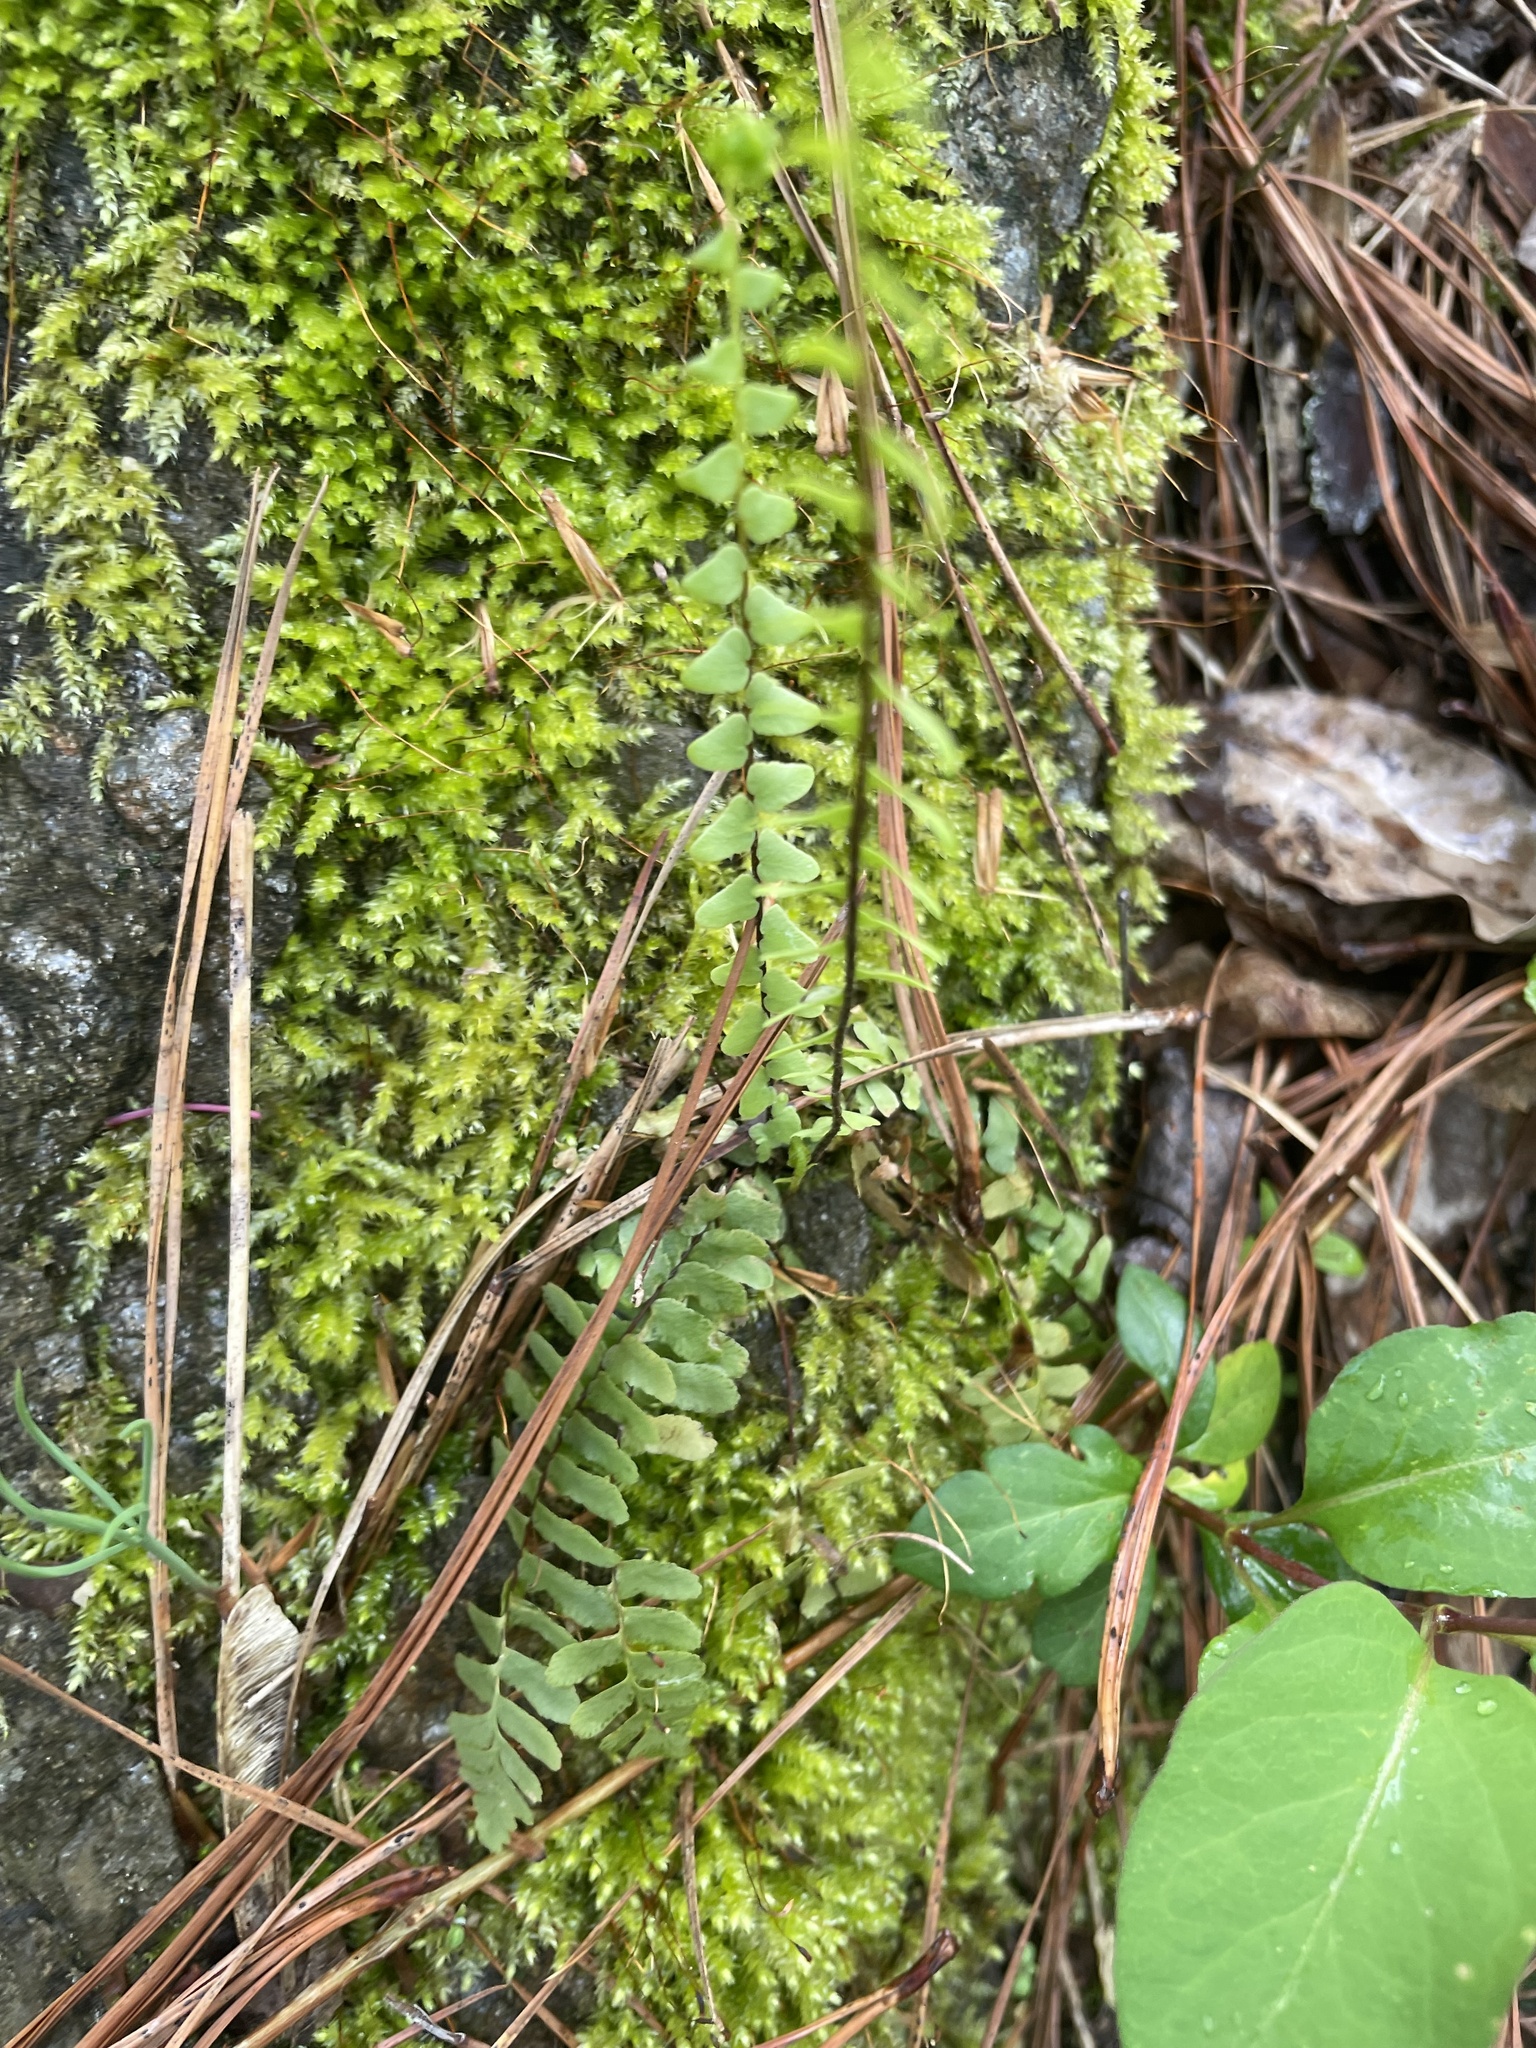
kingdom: Plantae
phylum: Tracheophyta
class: Polypodiopsida
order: Polypodiales
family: Aspleniaceae
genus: Asplenium
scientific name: Asplenium platyneuron
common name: Ebony spleenwort
